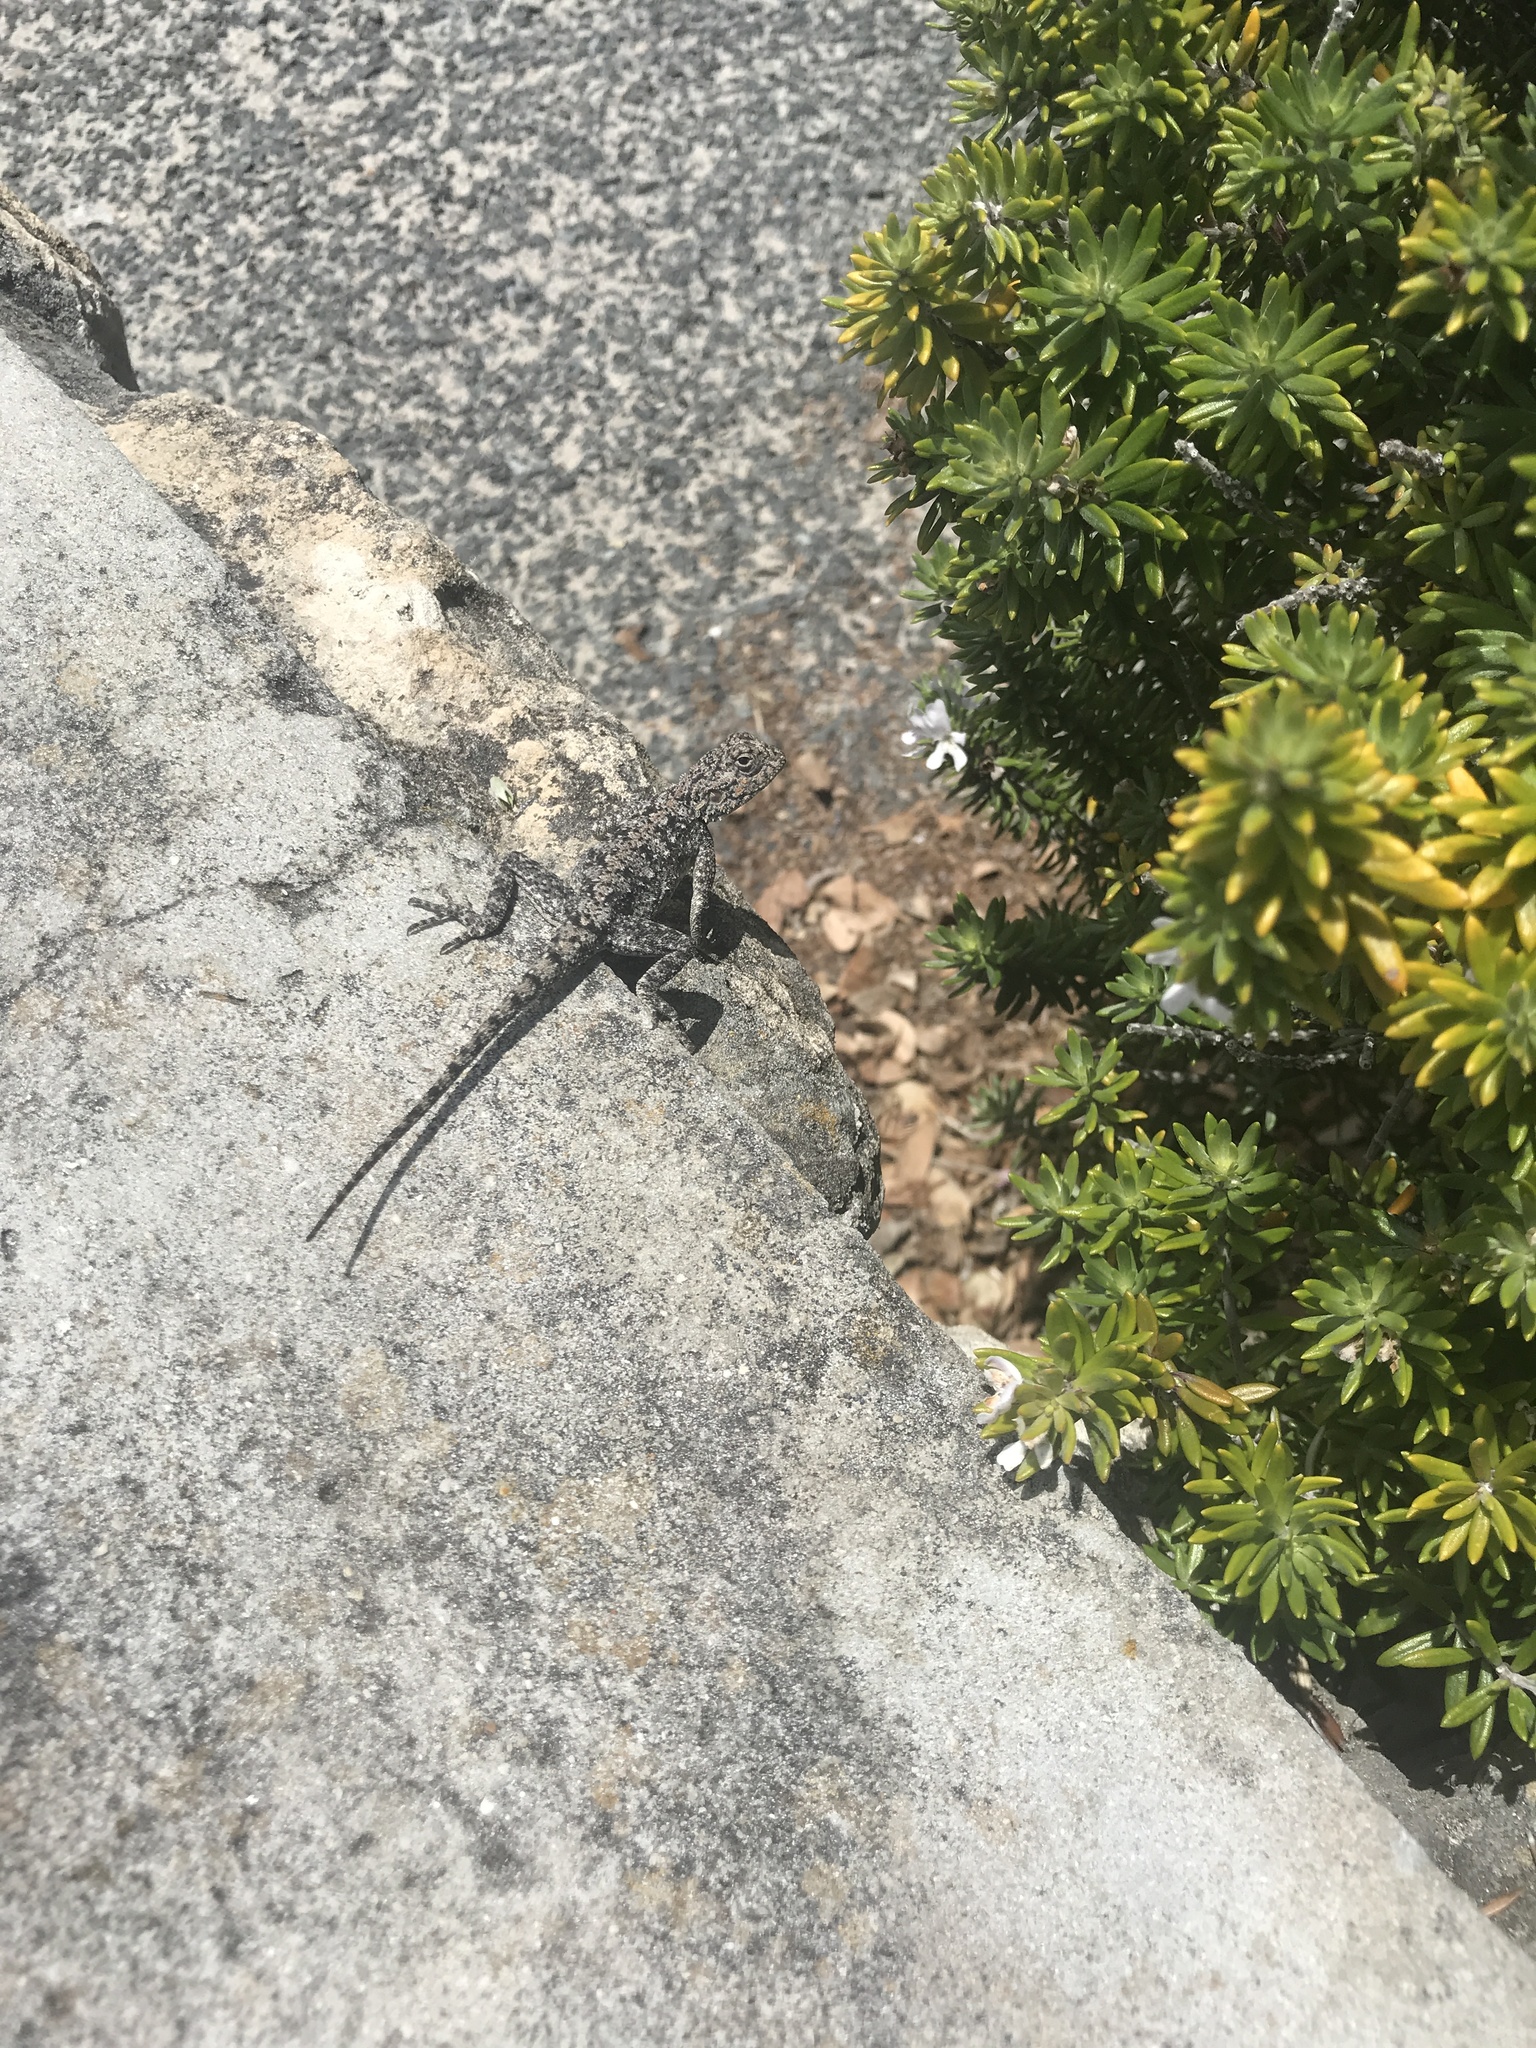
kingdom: Animalia
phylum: Chordata
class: Squamata
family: Agamidae
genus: Agama
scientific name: Agama atra
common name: Southern african rock agama
